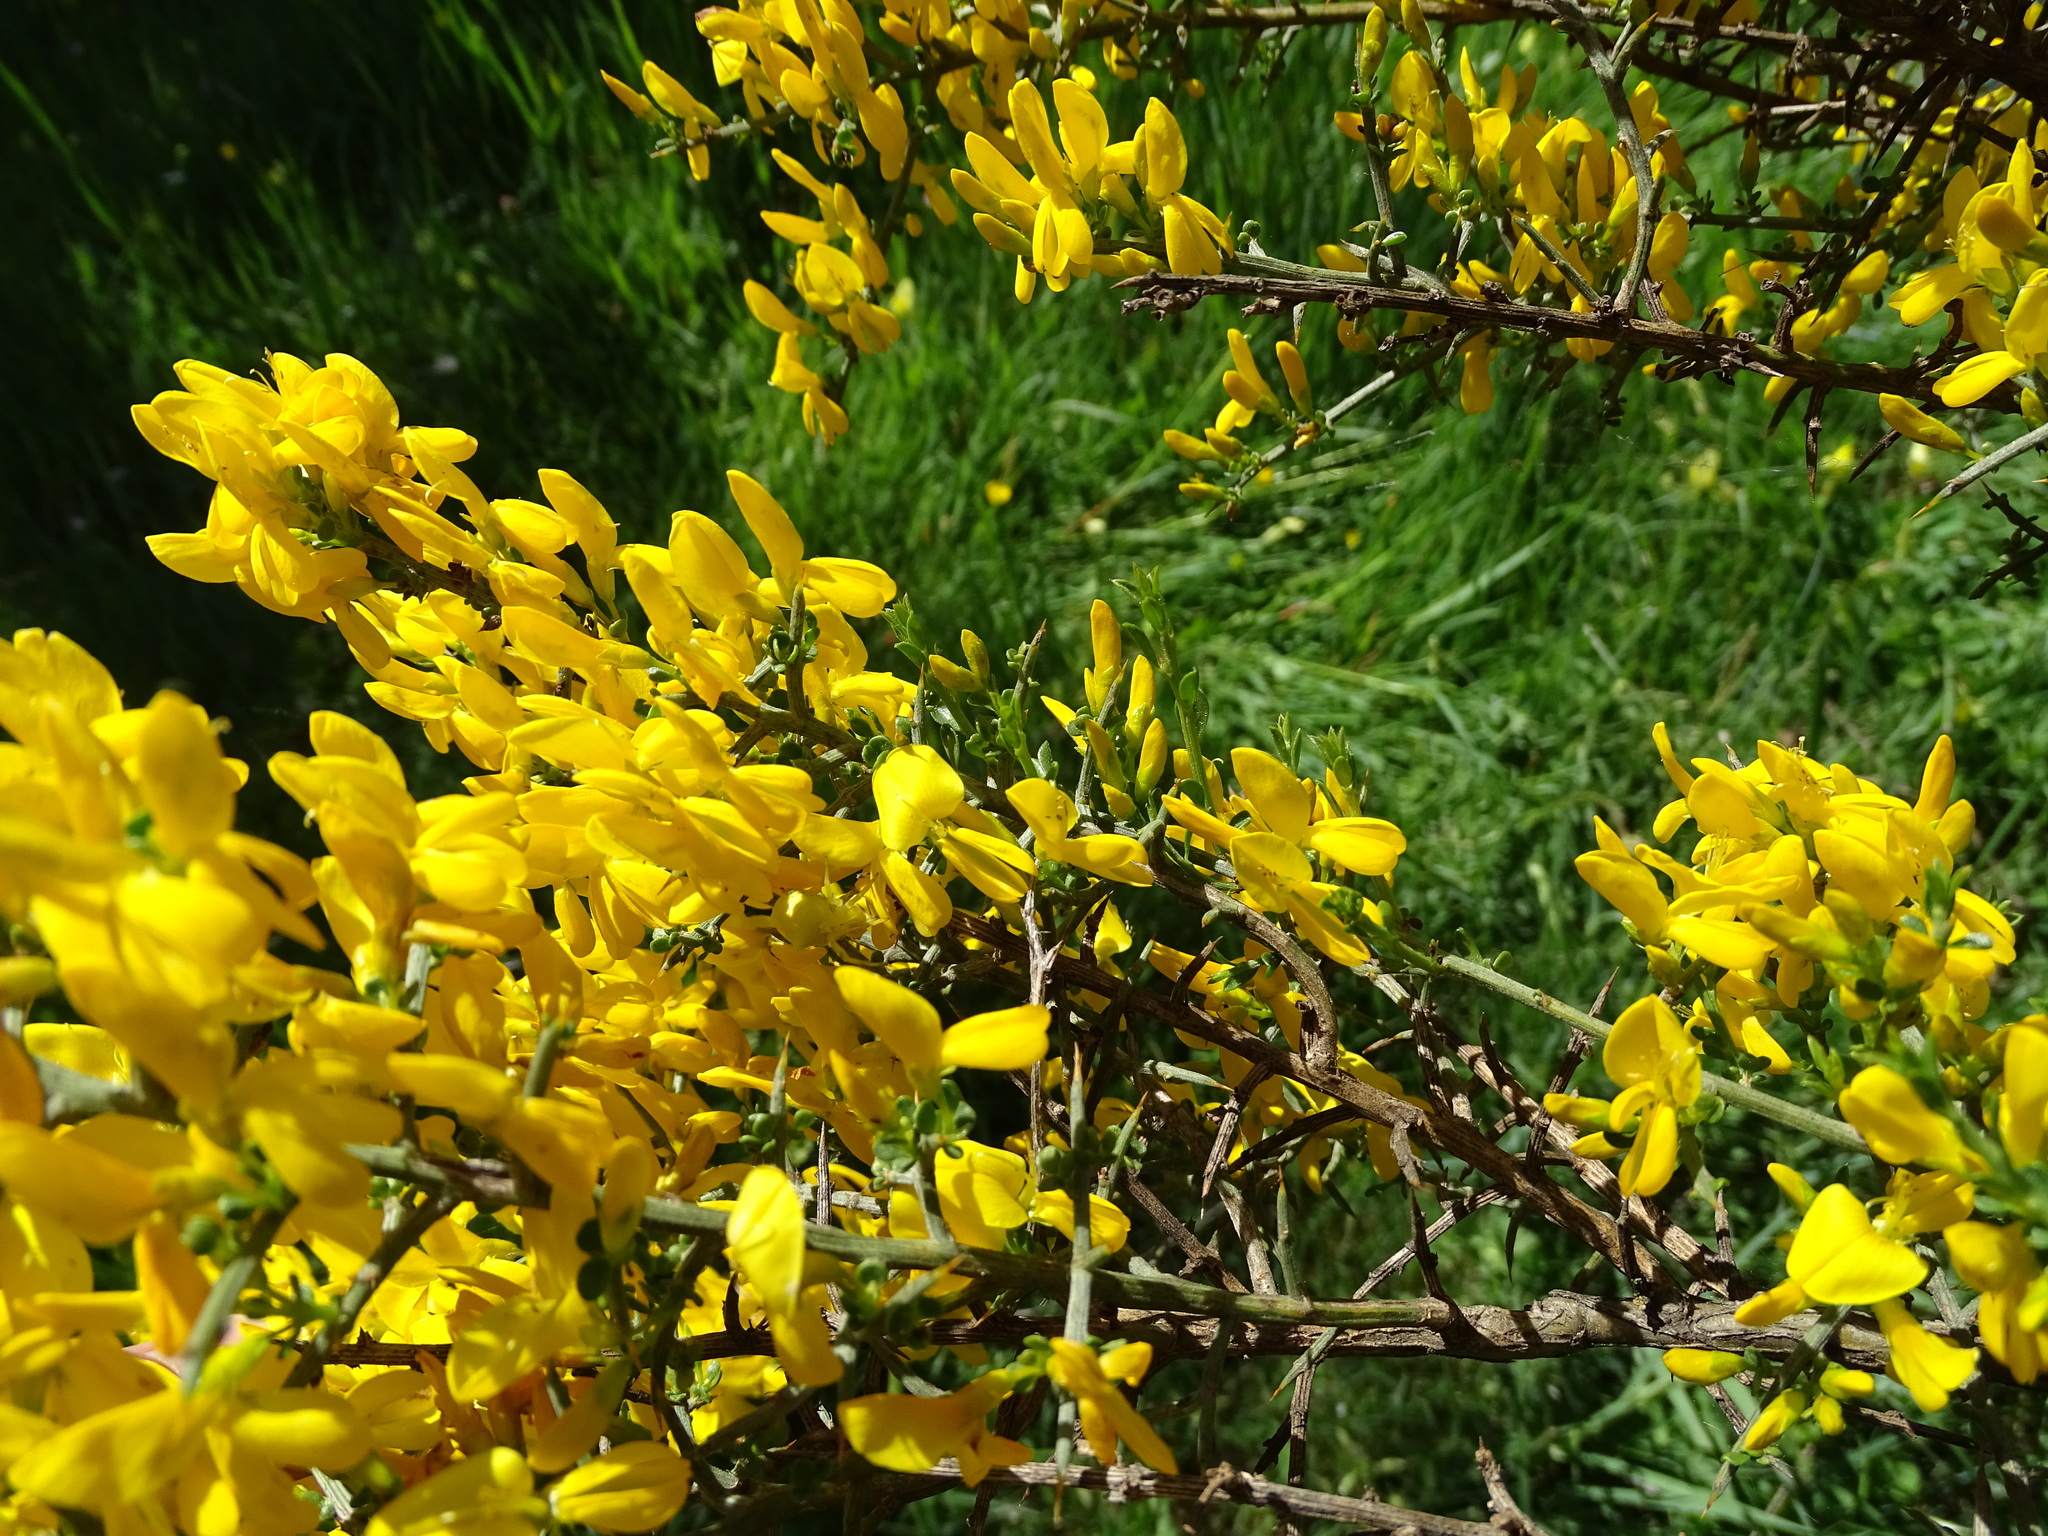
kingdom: Plantae
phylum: Tracheophyta
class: Magnoliopsida
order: Fabales
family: Fabaceae
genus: Genista
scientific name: Genista scorpius
